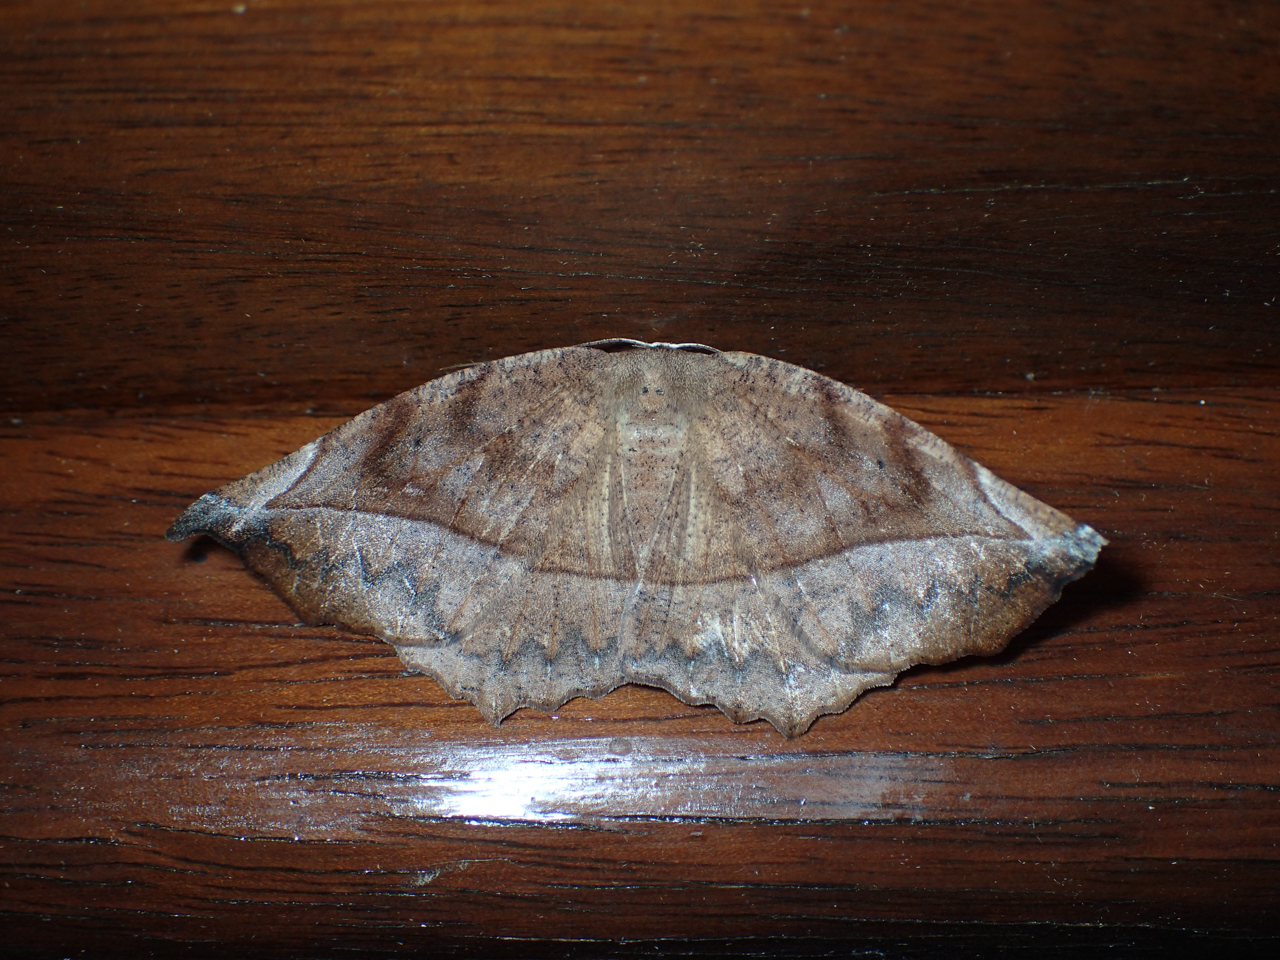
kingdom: Animalia
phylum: Arthropoda
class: Insecta
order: Lepidoptera
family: Geometridae
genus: Eutrapela
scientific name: Eutrapela clemataria
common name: Curved-toothed geometer
